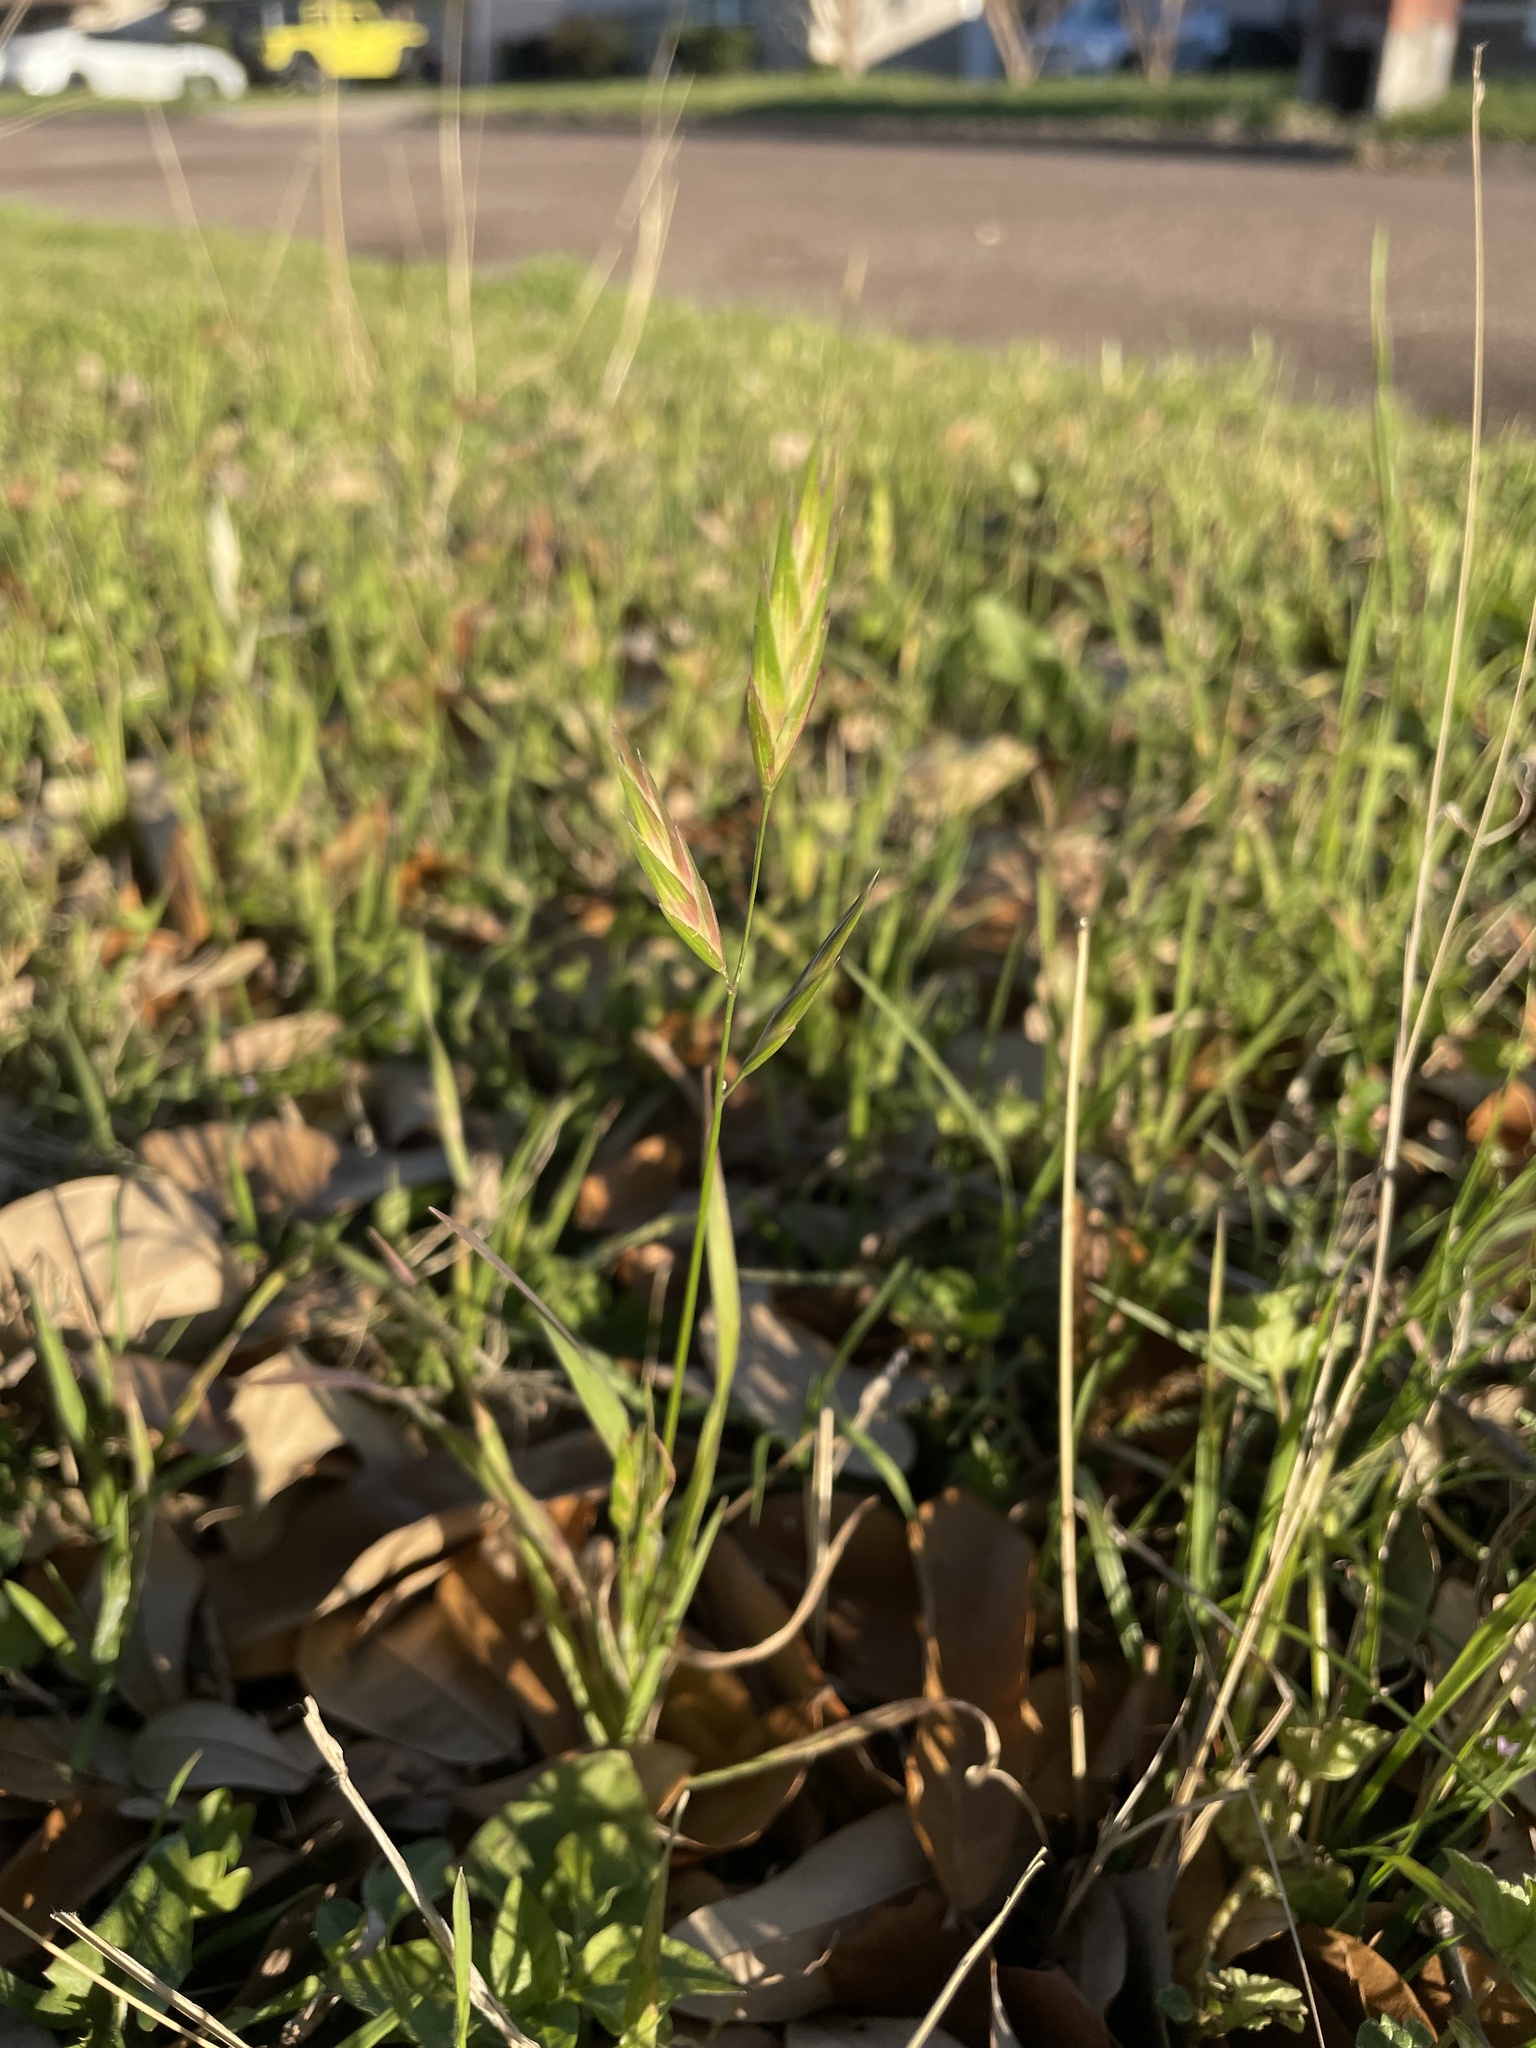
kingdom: Plantae
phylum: Tracheophyta
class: Liliopsida
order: Poales
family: Poaceae
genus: Bromus
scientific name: Bromus catharticus
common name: Rescuegrass
